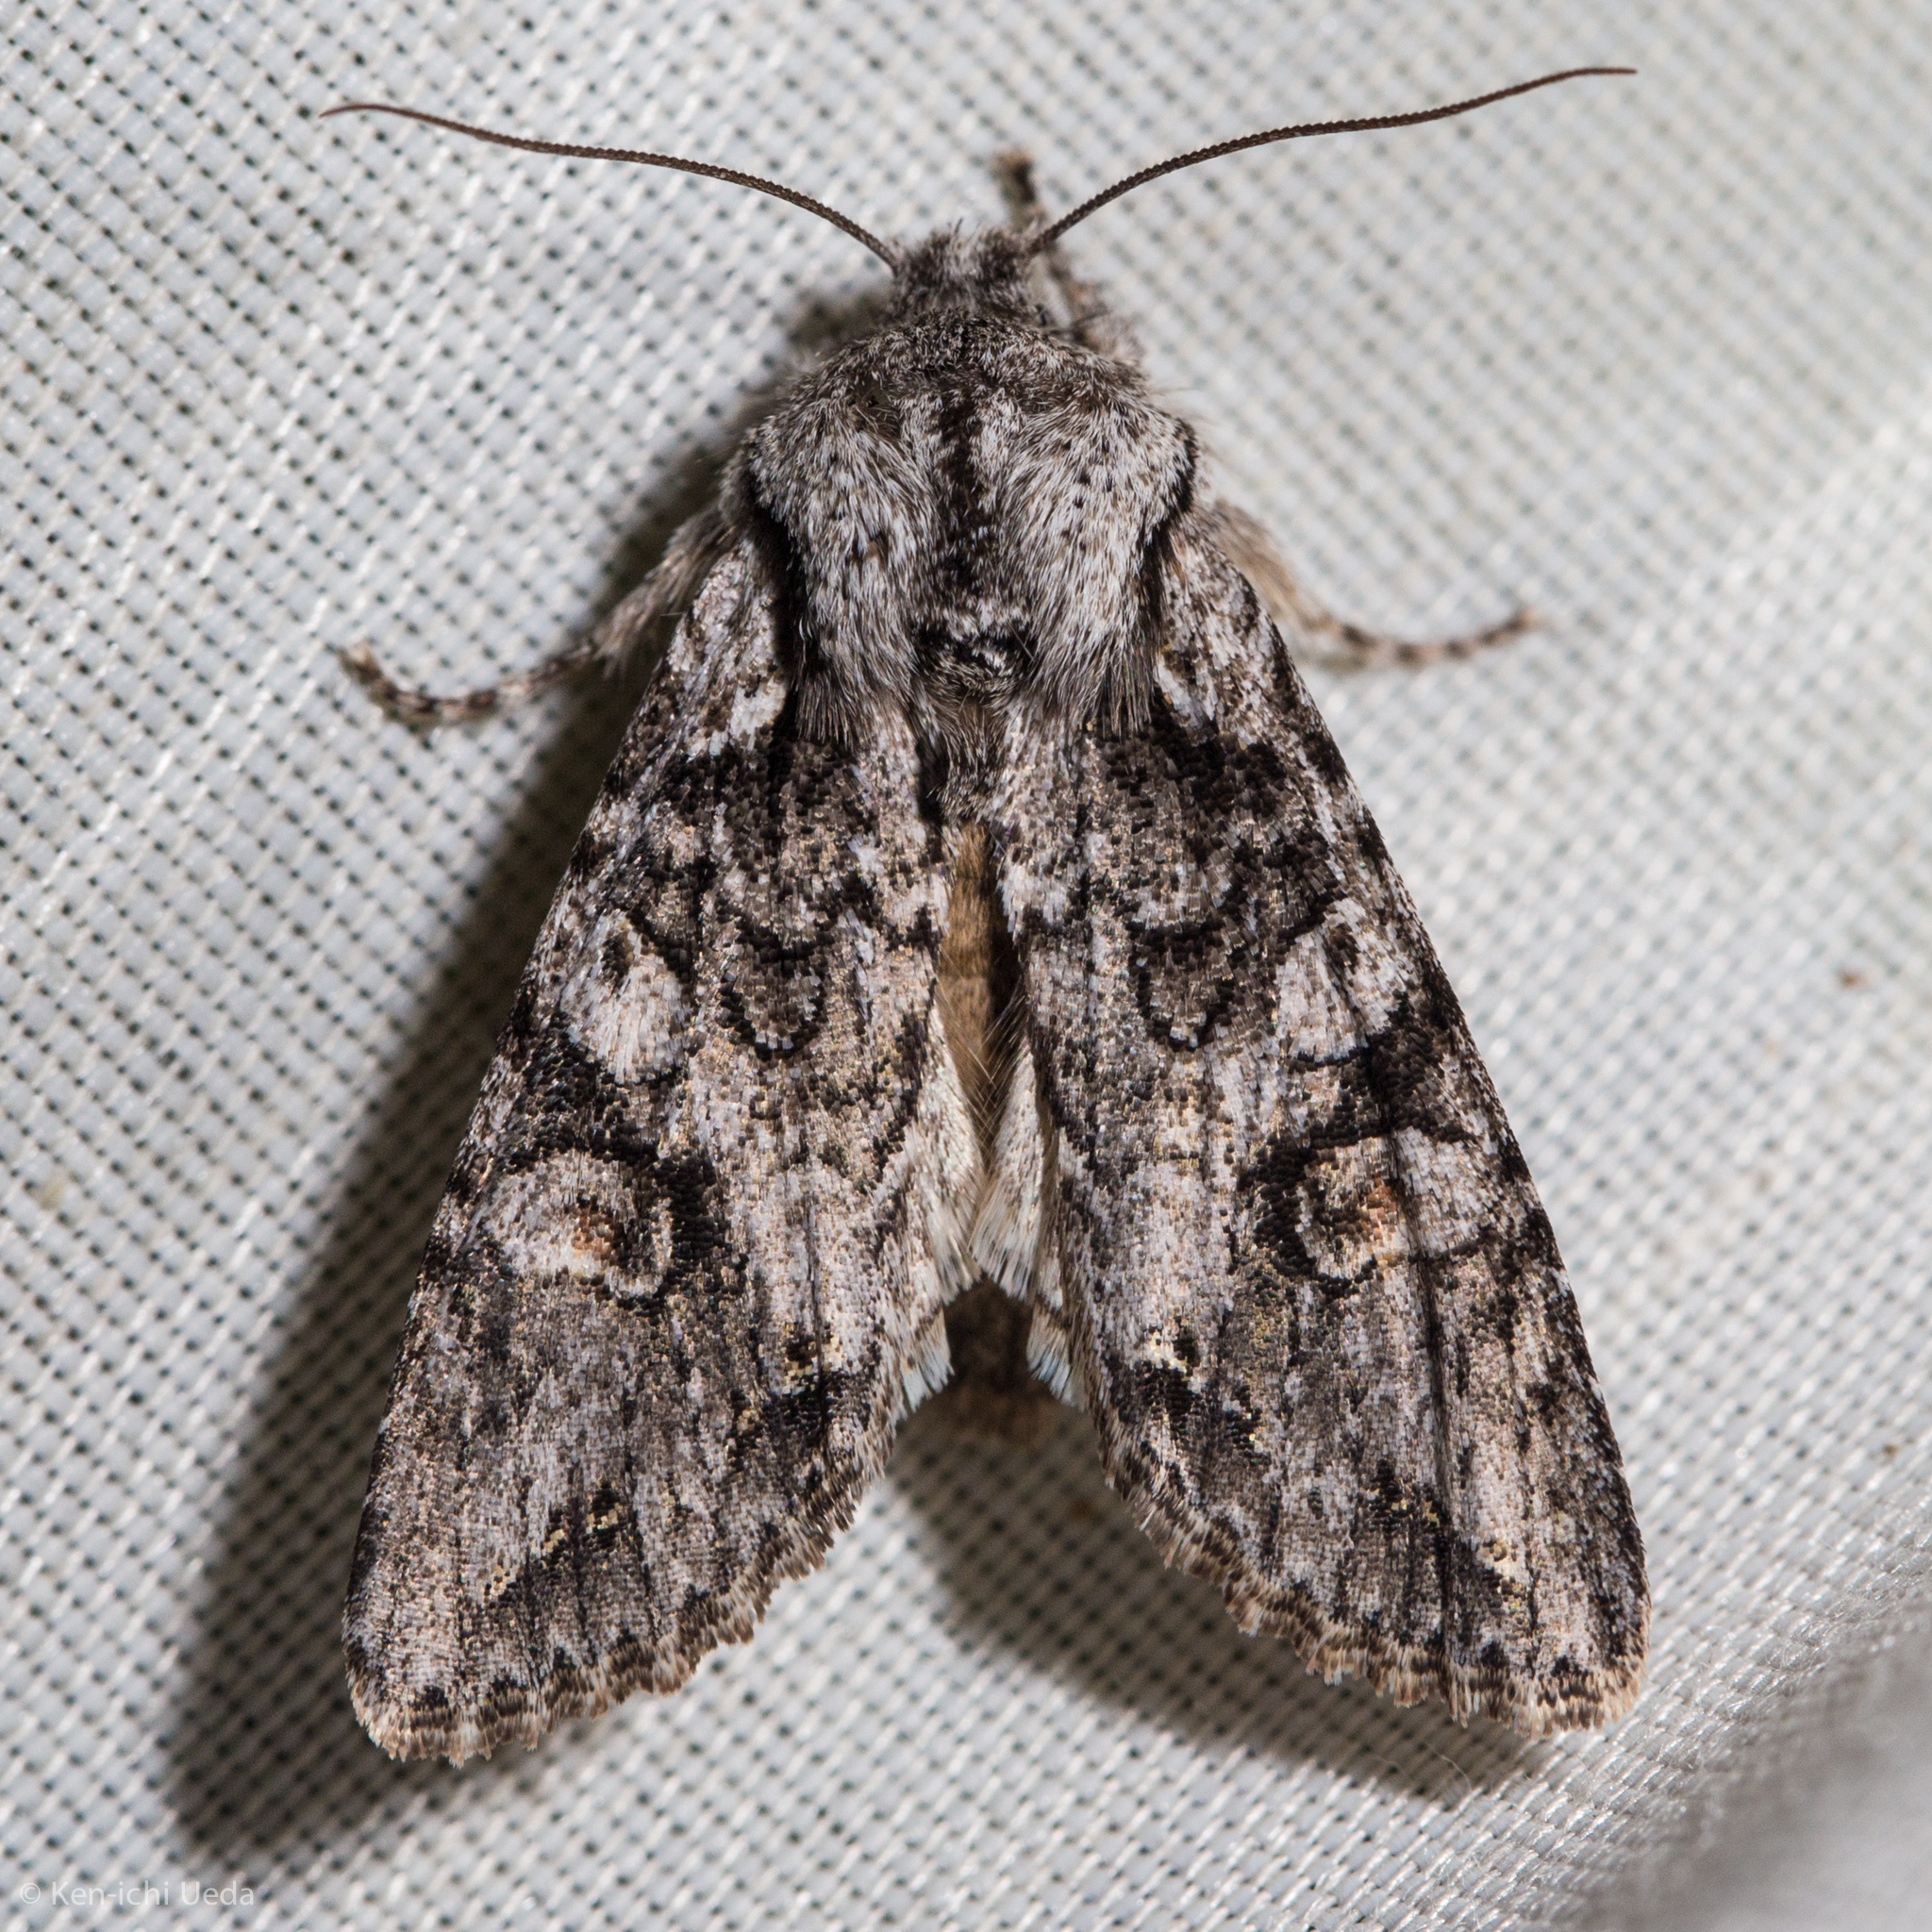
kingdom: Animalia
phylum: Arthropoda
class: Insecta
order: Lepidoptera
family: Noctuidae
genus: Egira
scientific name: Egira hiemalis
